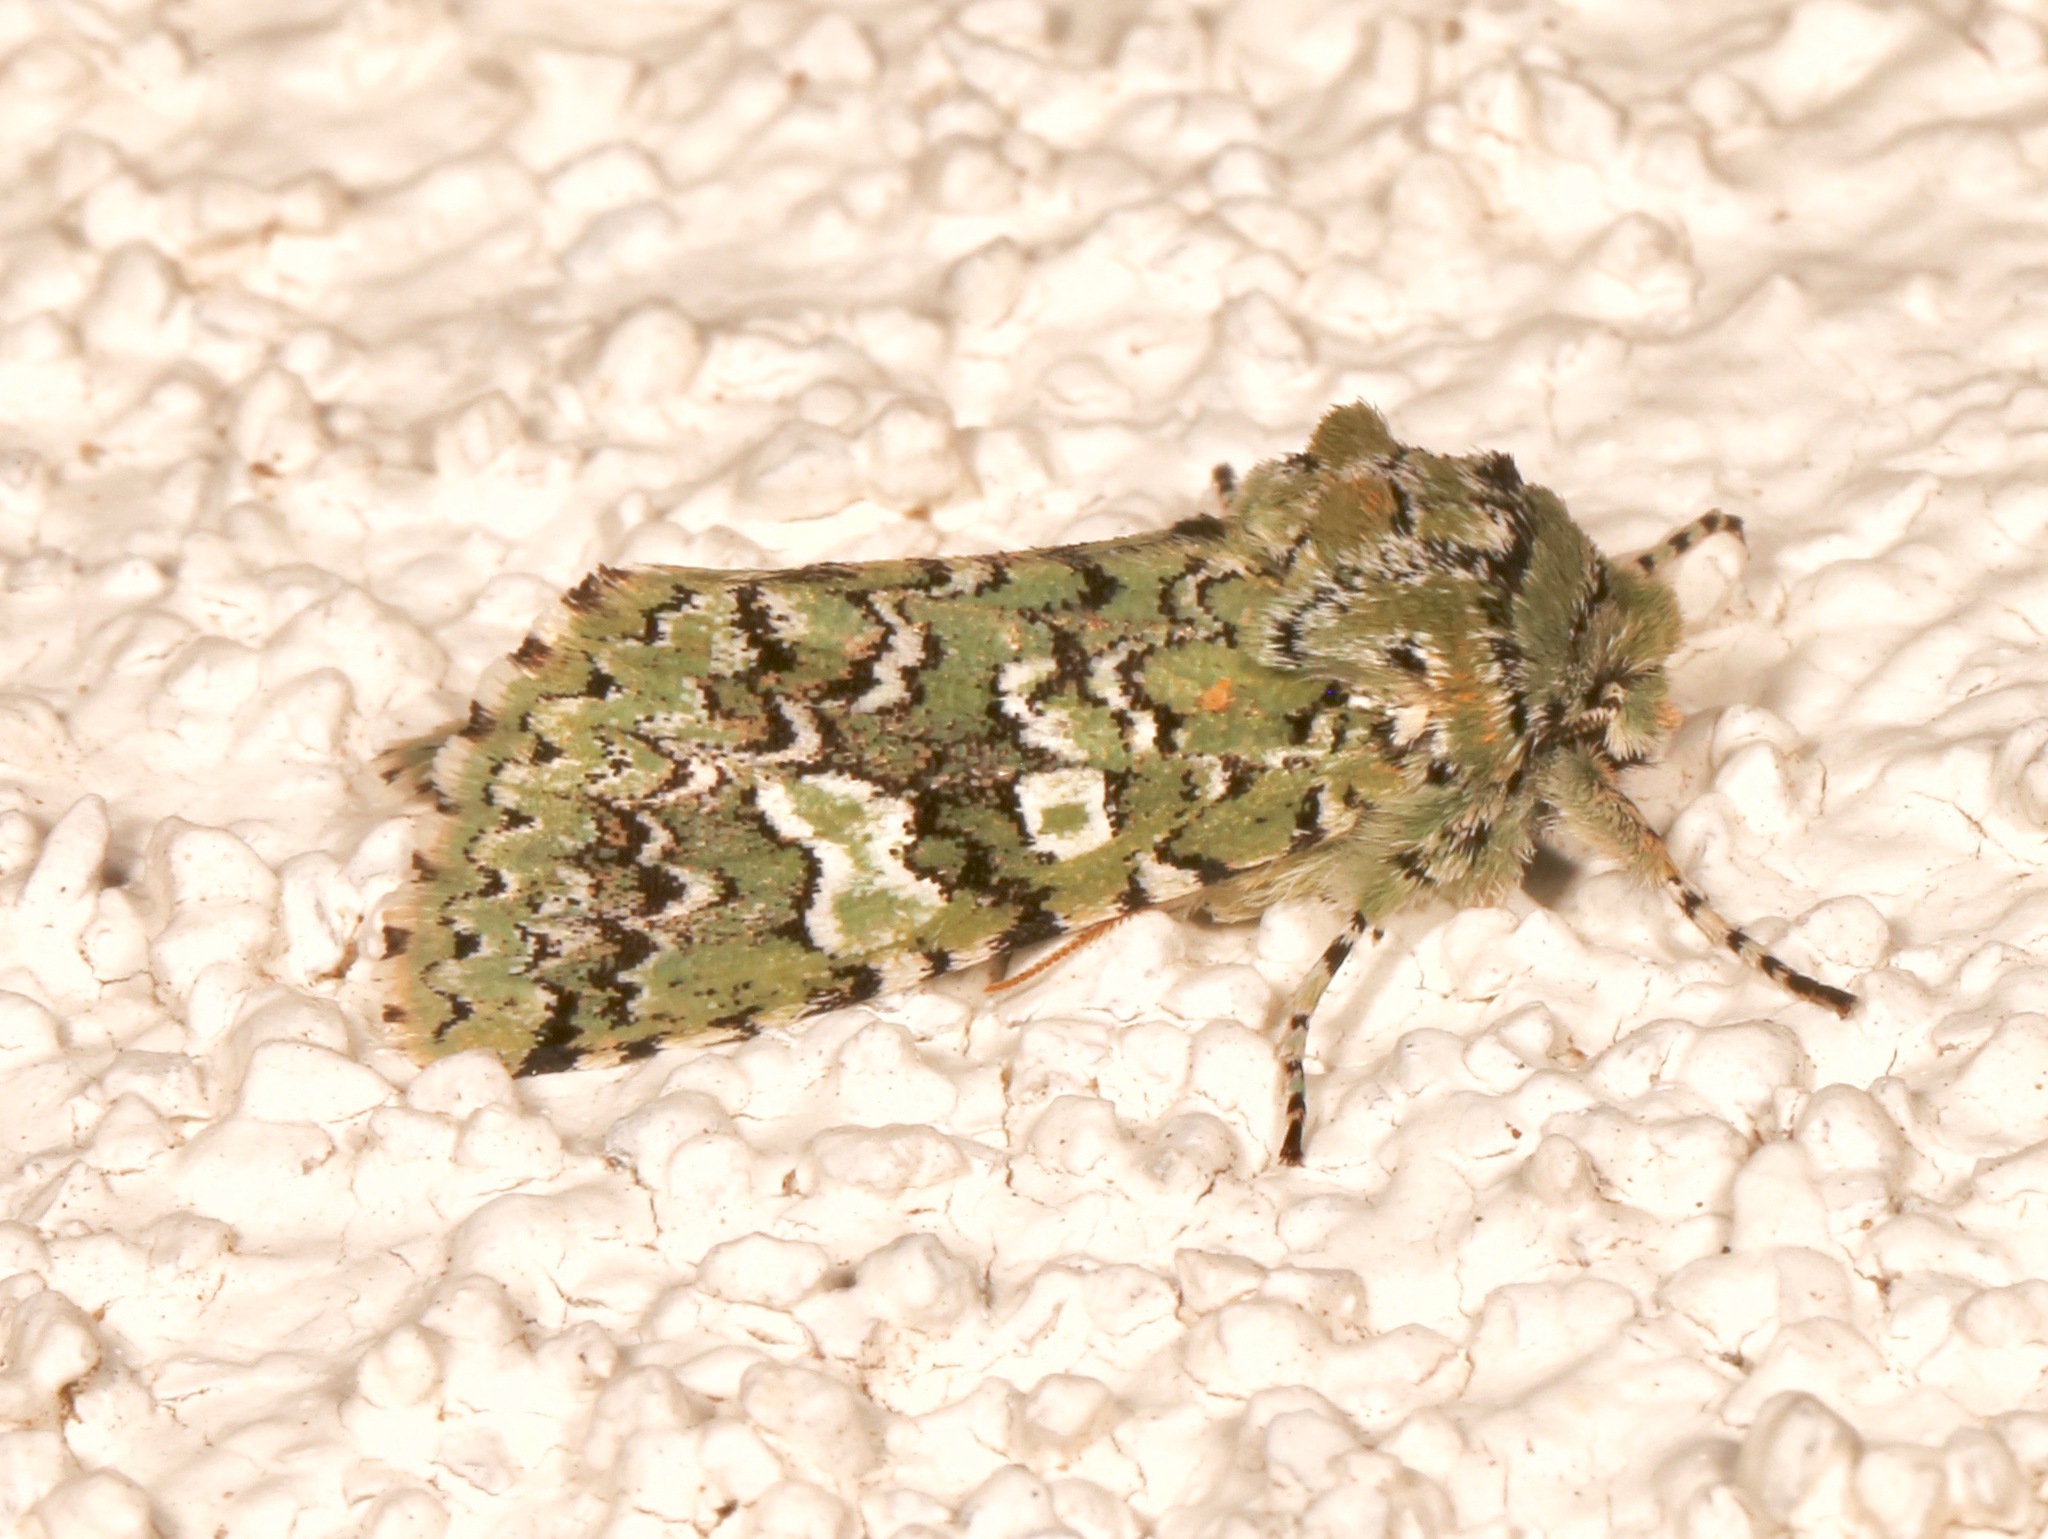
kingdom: Animalia
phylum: Arthropoda
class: Insecta
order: Lepidoptera
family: Noctuidae
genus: Feralia
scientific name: Feralia februalis
